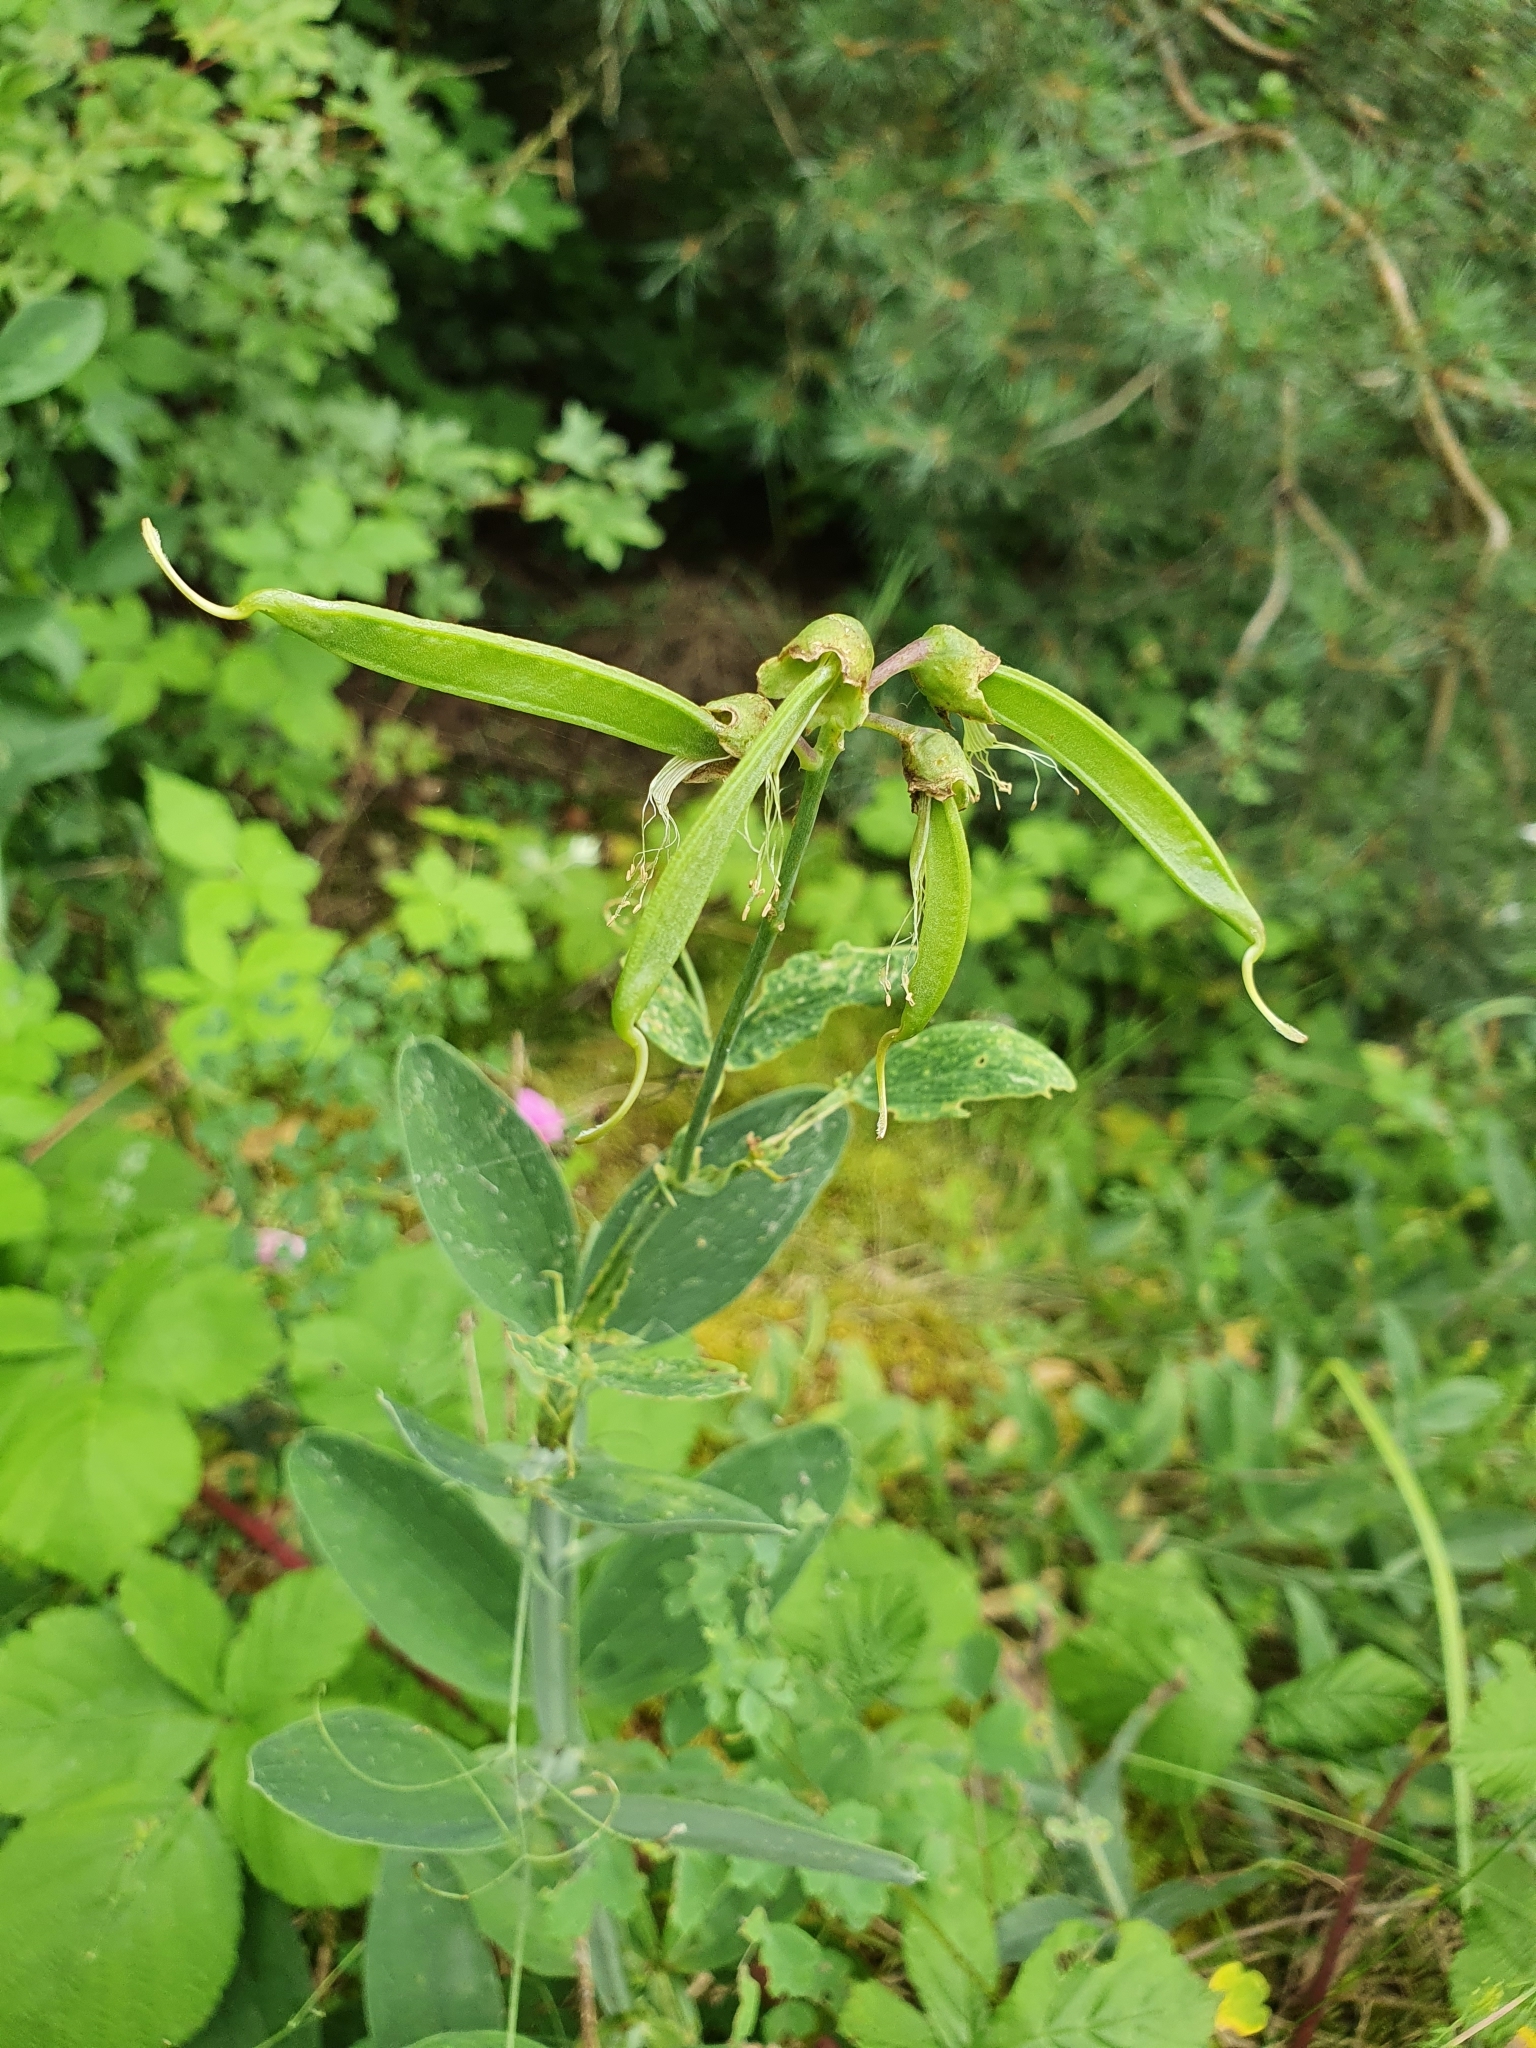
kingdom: Plantae
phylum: Tracheophyta
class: Magnoliopsida
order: Fabales
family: Fabaceae
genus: Lathyrus
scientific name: Lathyrus latifolius
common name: Perennial pea
